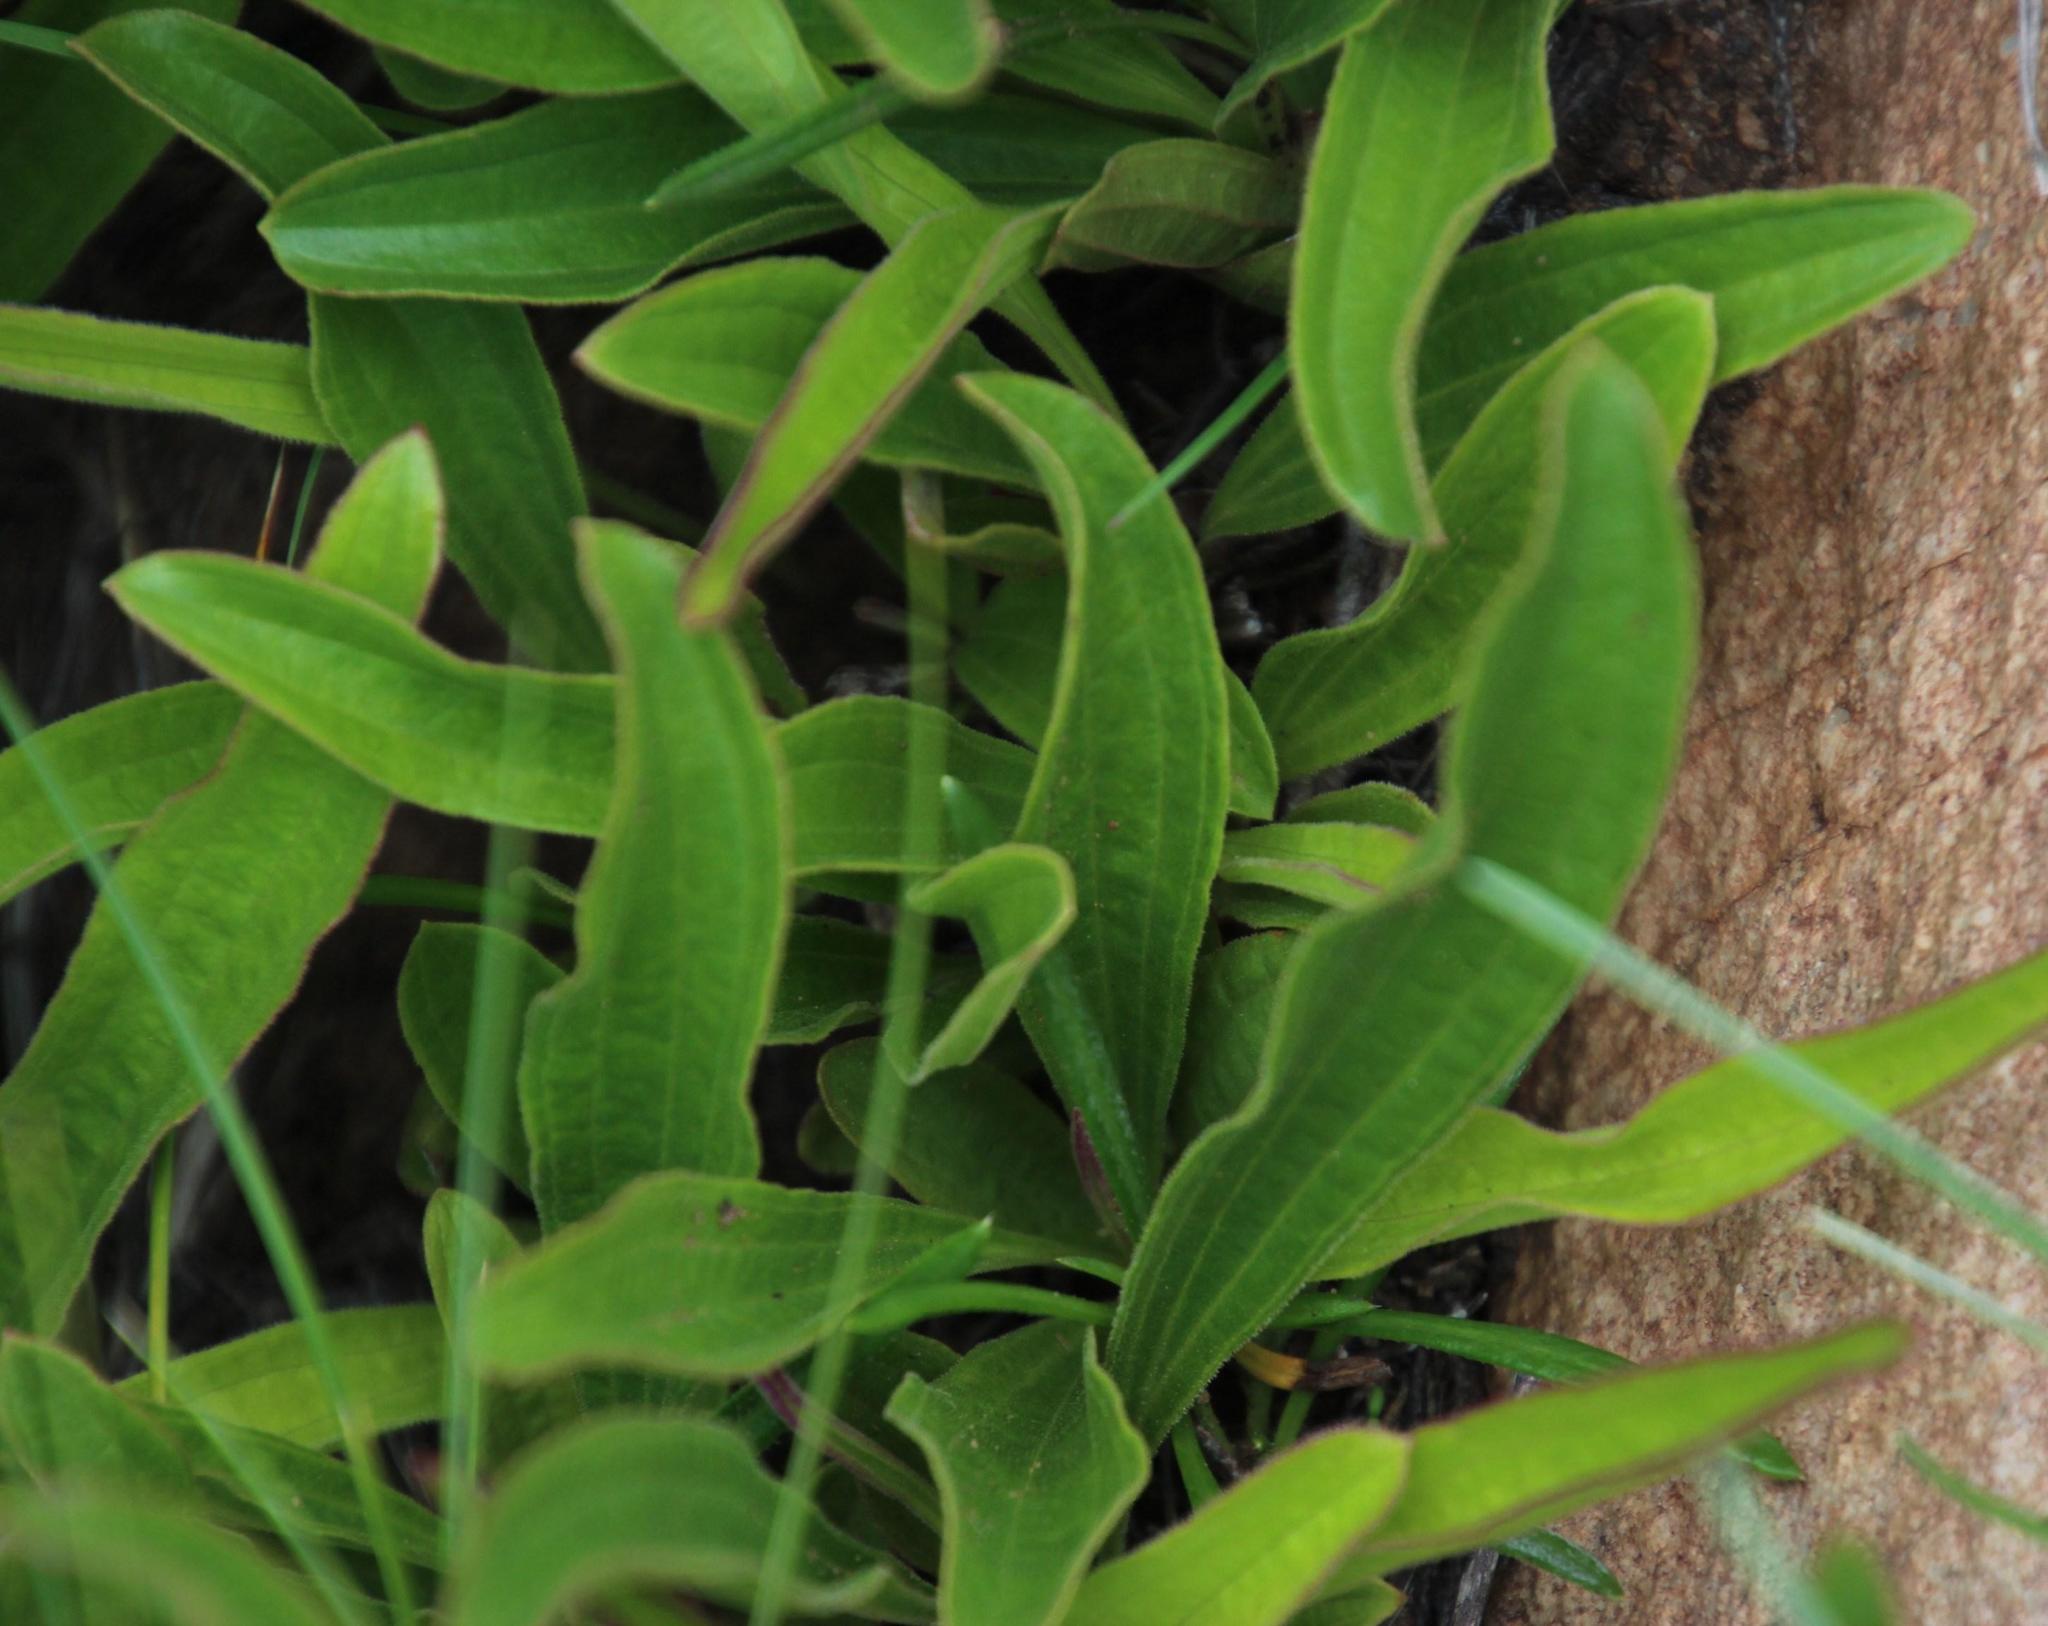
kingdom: Plantae
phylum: Tracheophyta
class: Magnoliopsida
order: Asterales
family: Asteraceae
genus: Helichrysum
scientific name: Helichrysum nudifolium
